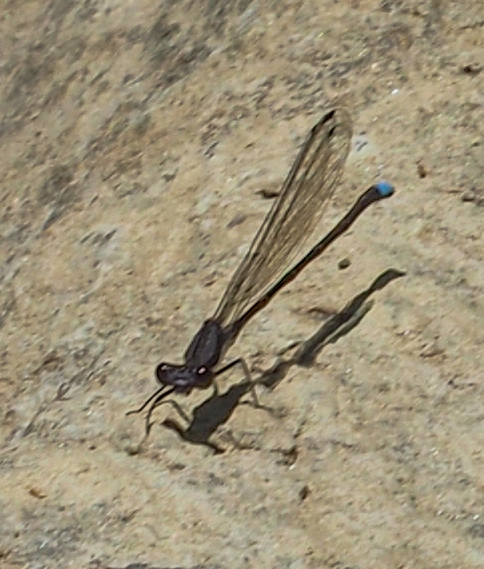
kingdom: Animalia
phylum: Arthropoda
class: Insecta
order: Odonata
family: Coenagrionidae
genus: Argia
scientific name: Argia tibialis
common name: Blue-tipped dancer
